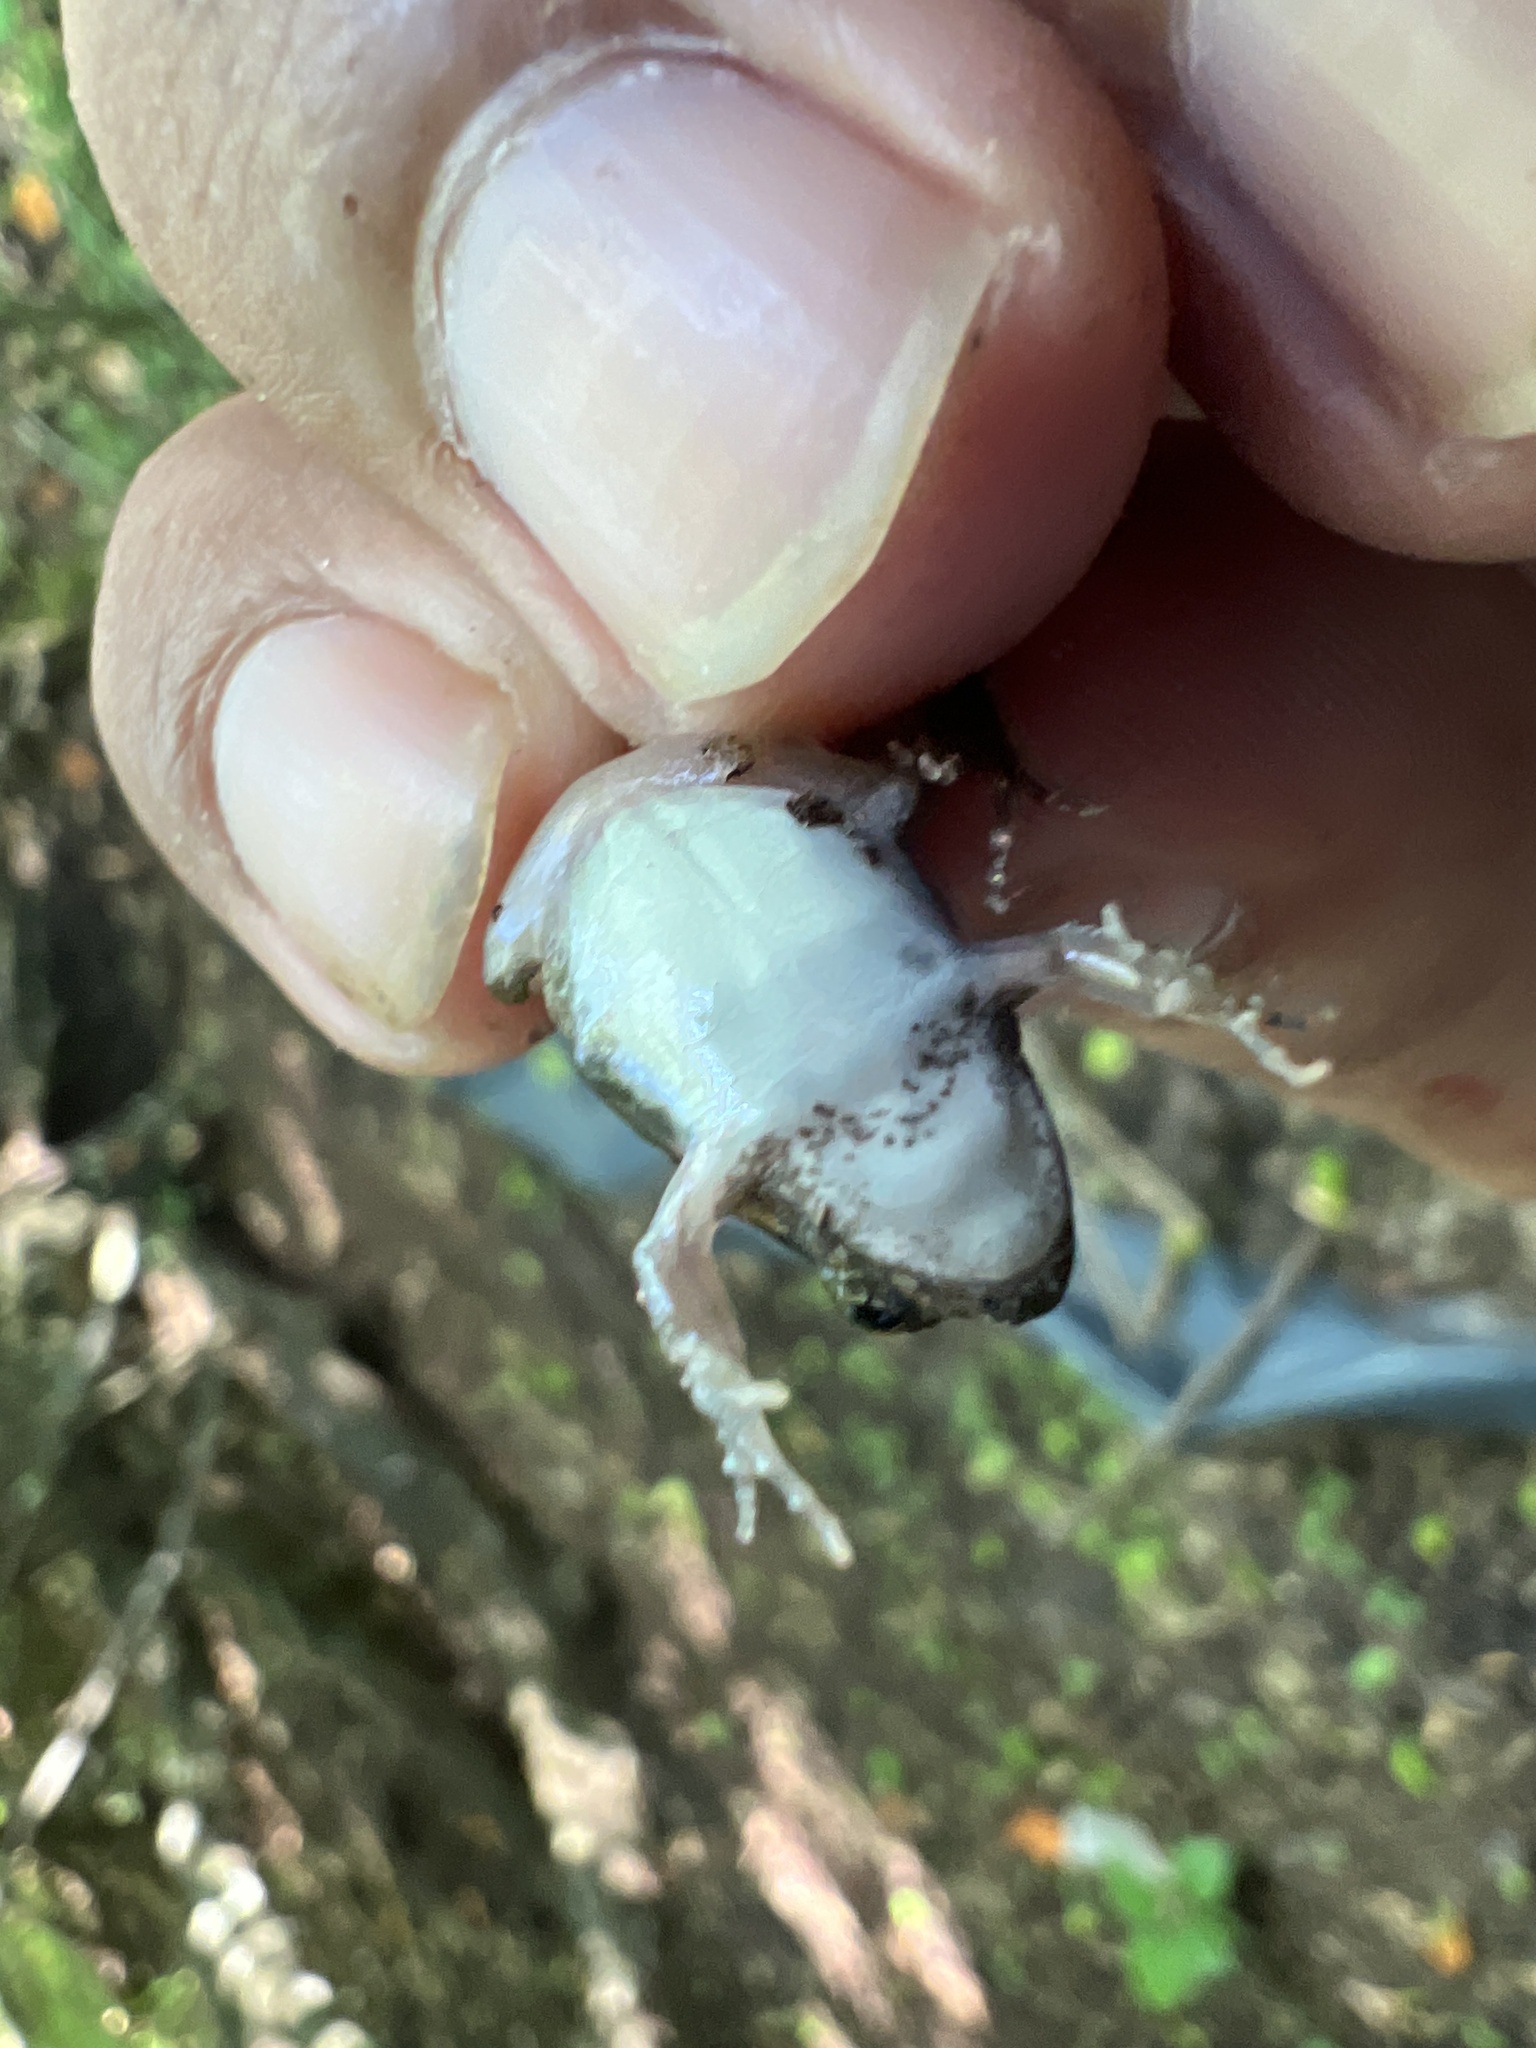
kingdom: Animalia
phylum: Chordata
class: Amphibia
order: Anura
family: Leptodactylidae
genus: Physalaemus
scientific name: Physalaemus biligonigerus
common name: Weeping frog
